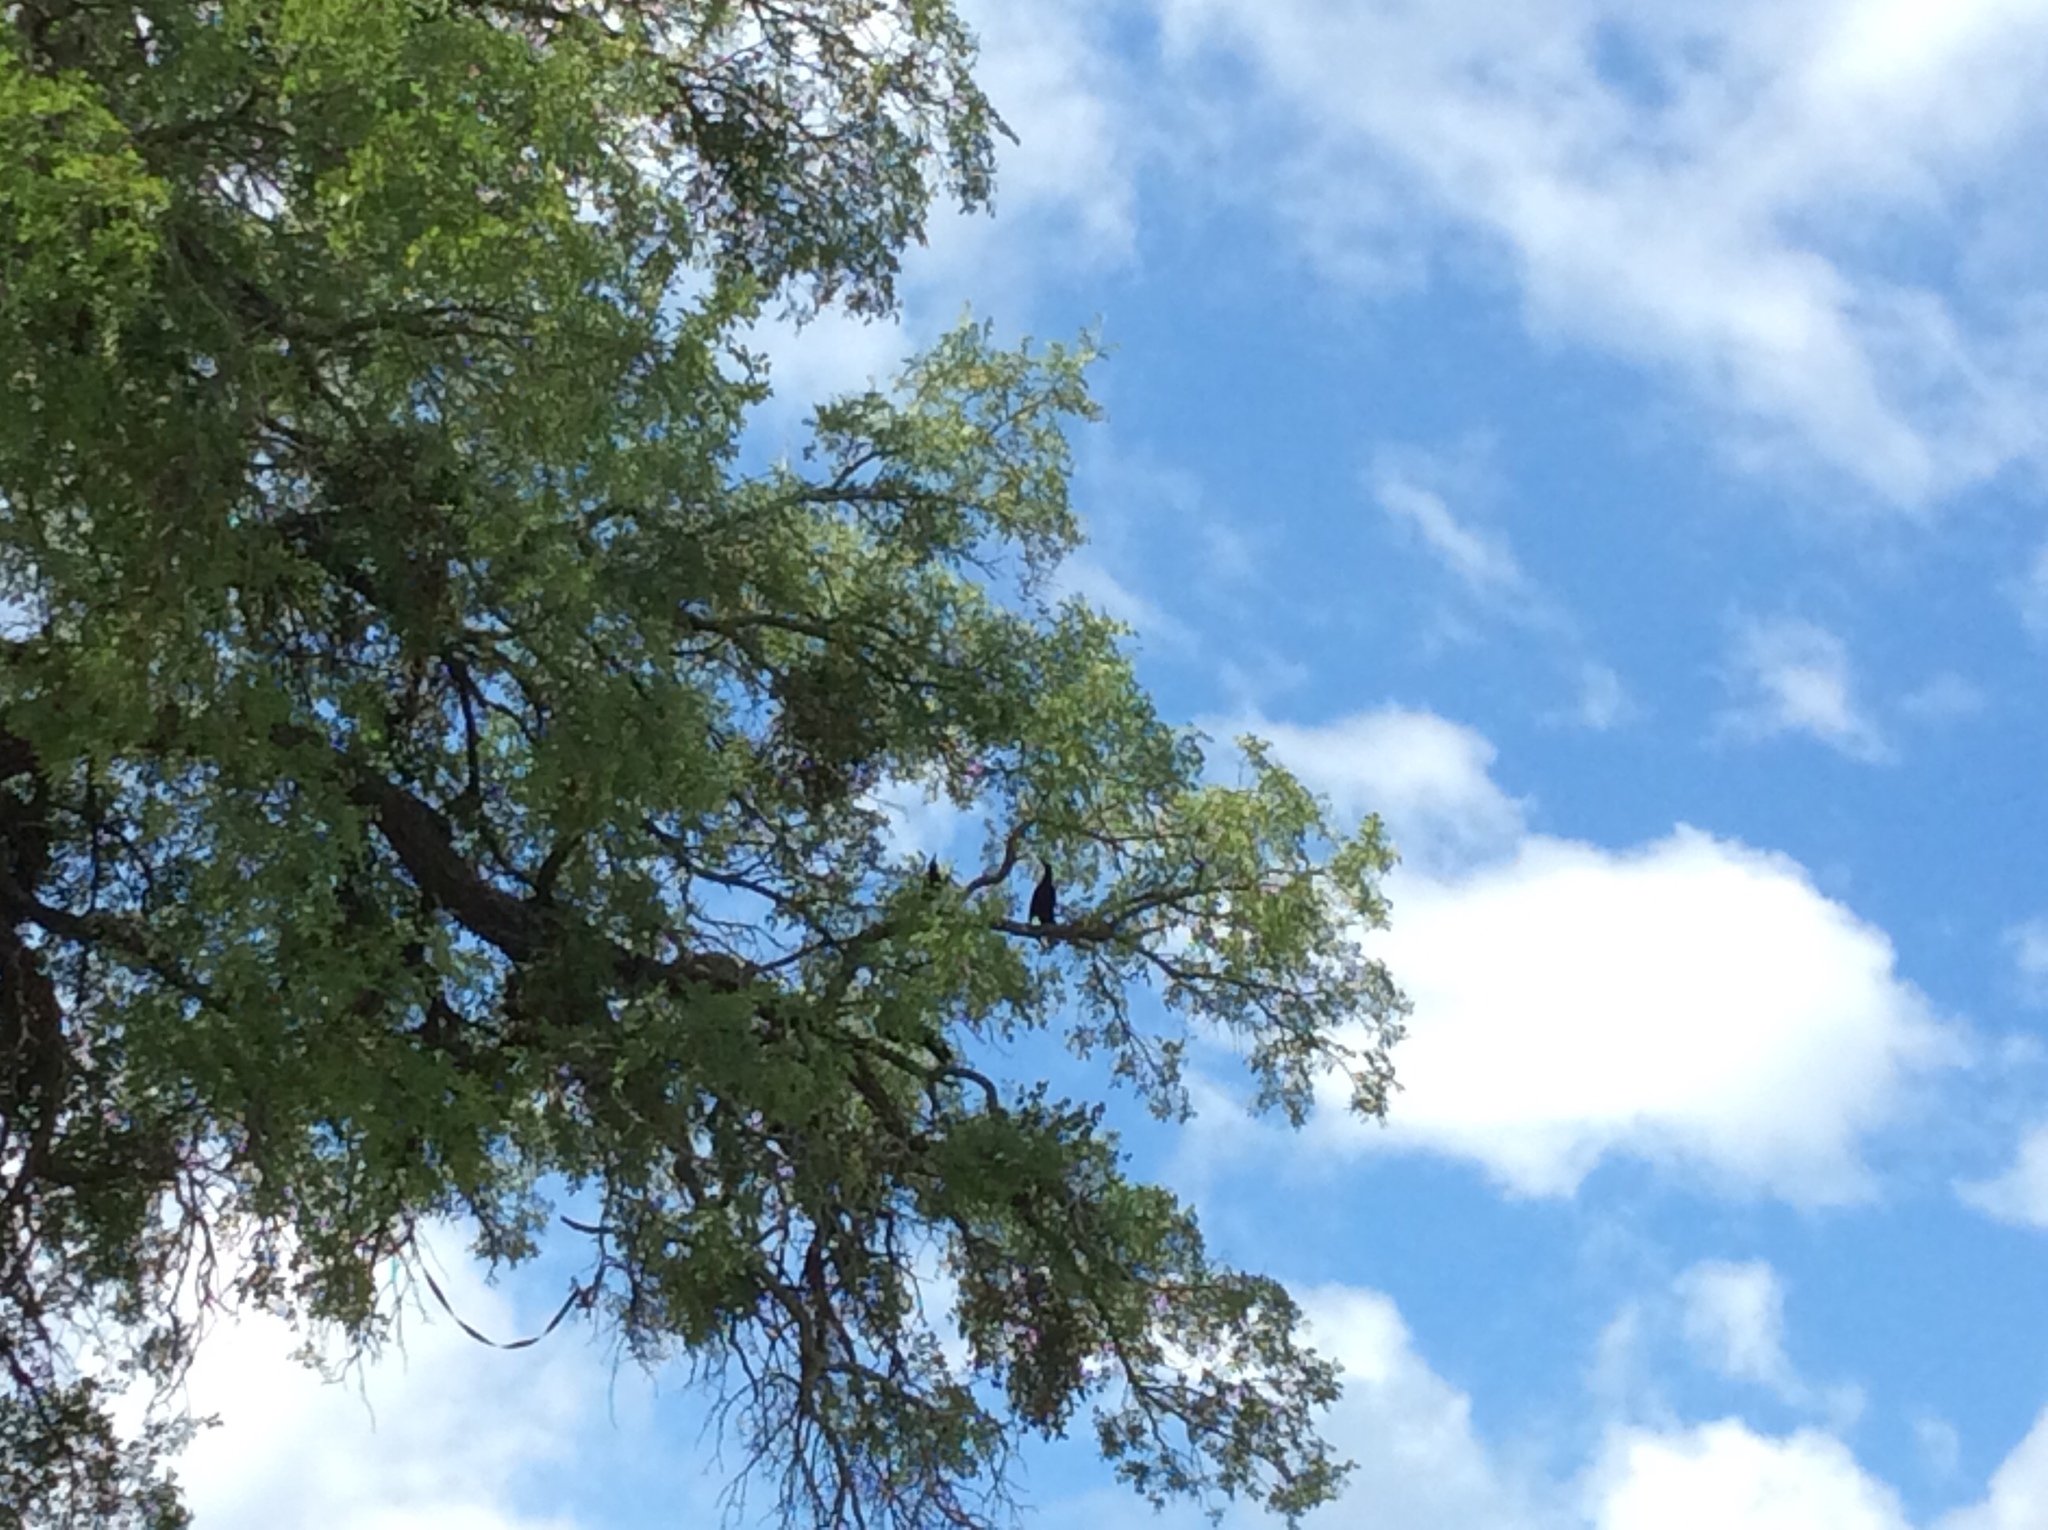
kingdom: Animalia
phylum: Chordata
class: Aves
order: Passeriformes
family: Icteridae
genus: Quiscalus
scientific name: Quiscalus mexicanus
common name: Great-tailed grackle
